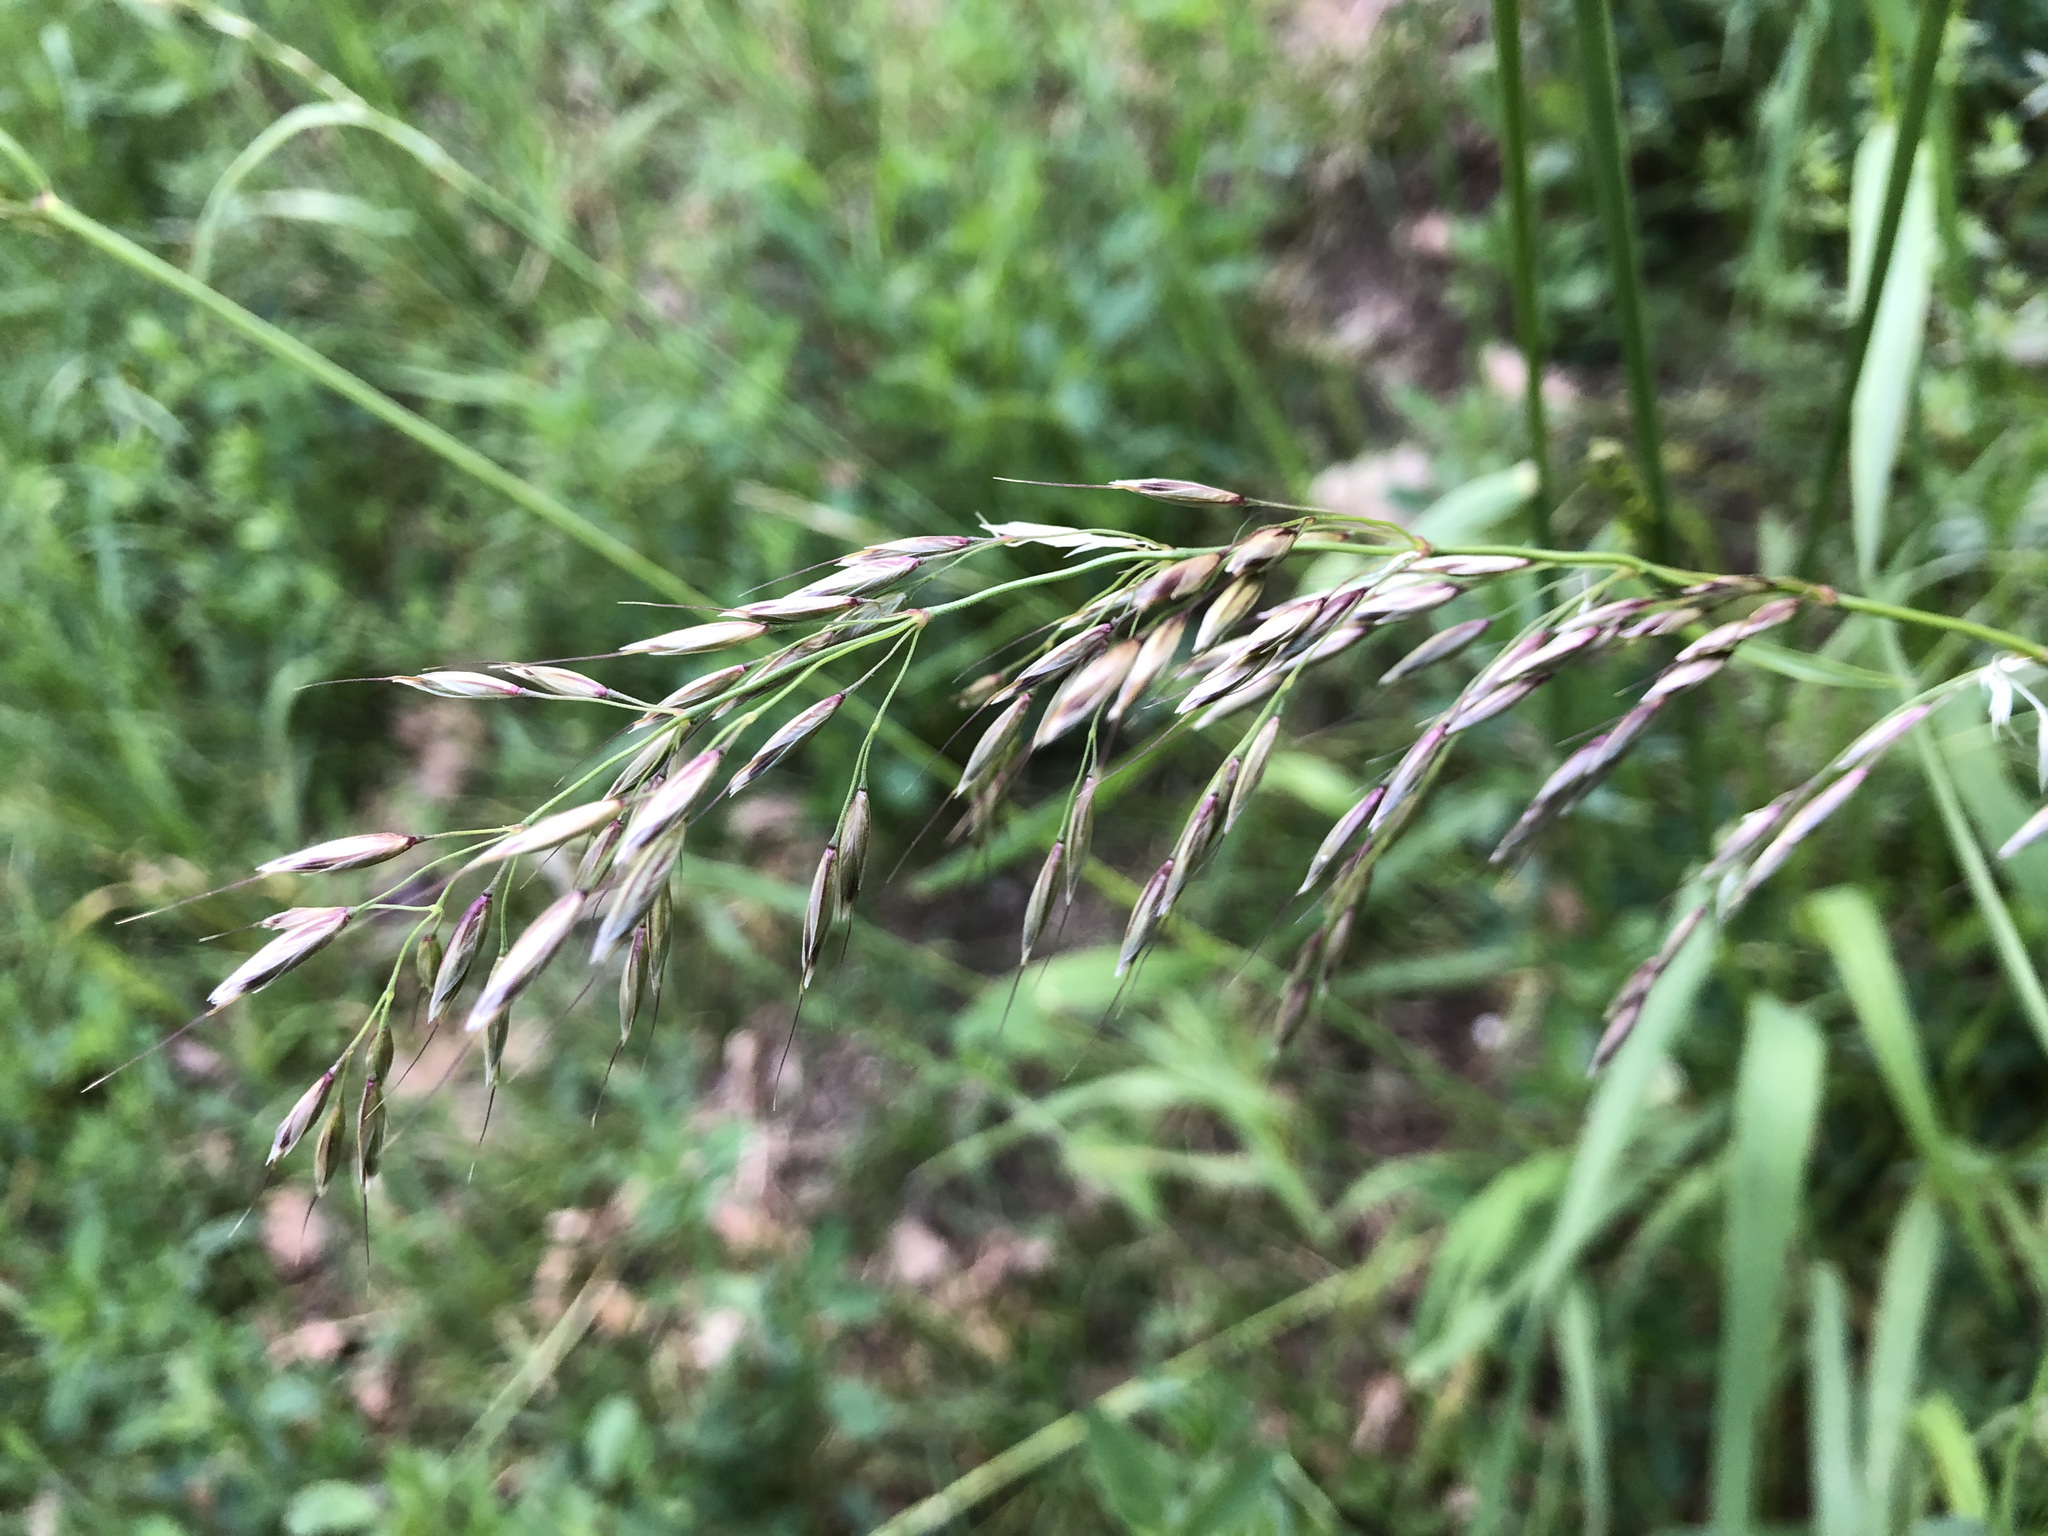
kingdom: Plantae
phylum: Tracheophyta
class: Liliopsida
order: Poales
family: Poaceae
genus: Arrhenatherum
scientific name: Arrhenatherum elatius
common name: Tall oatgrass
